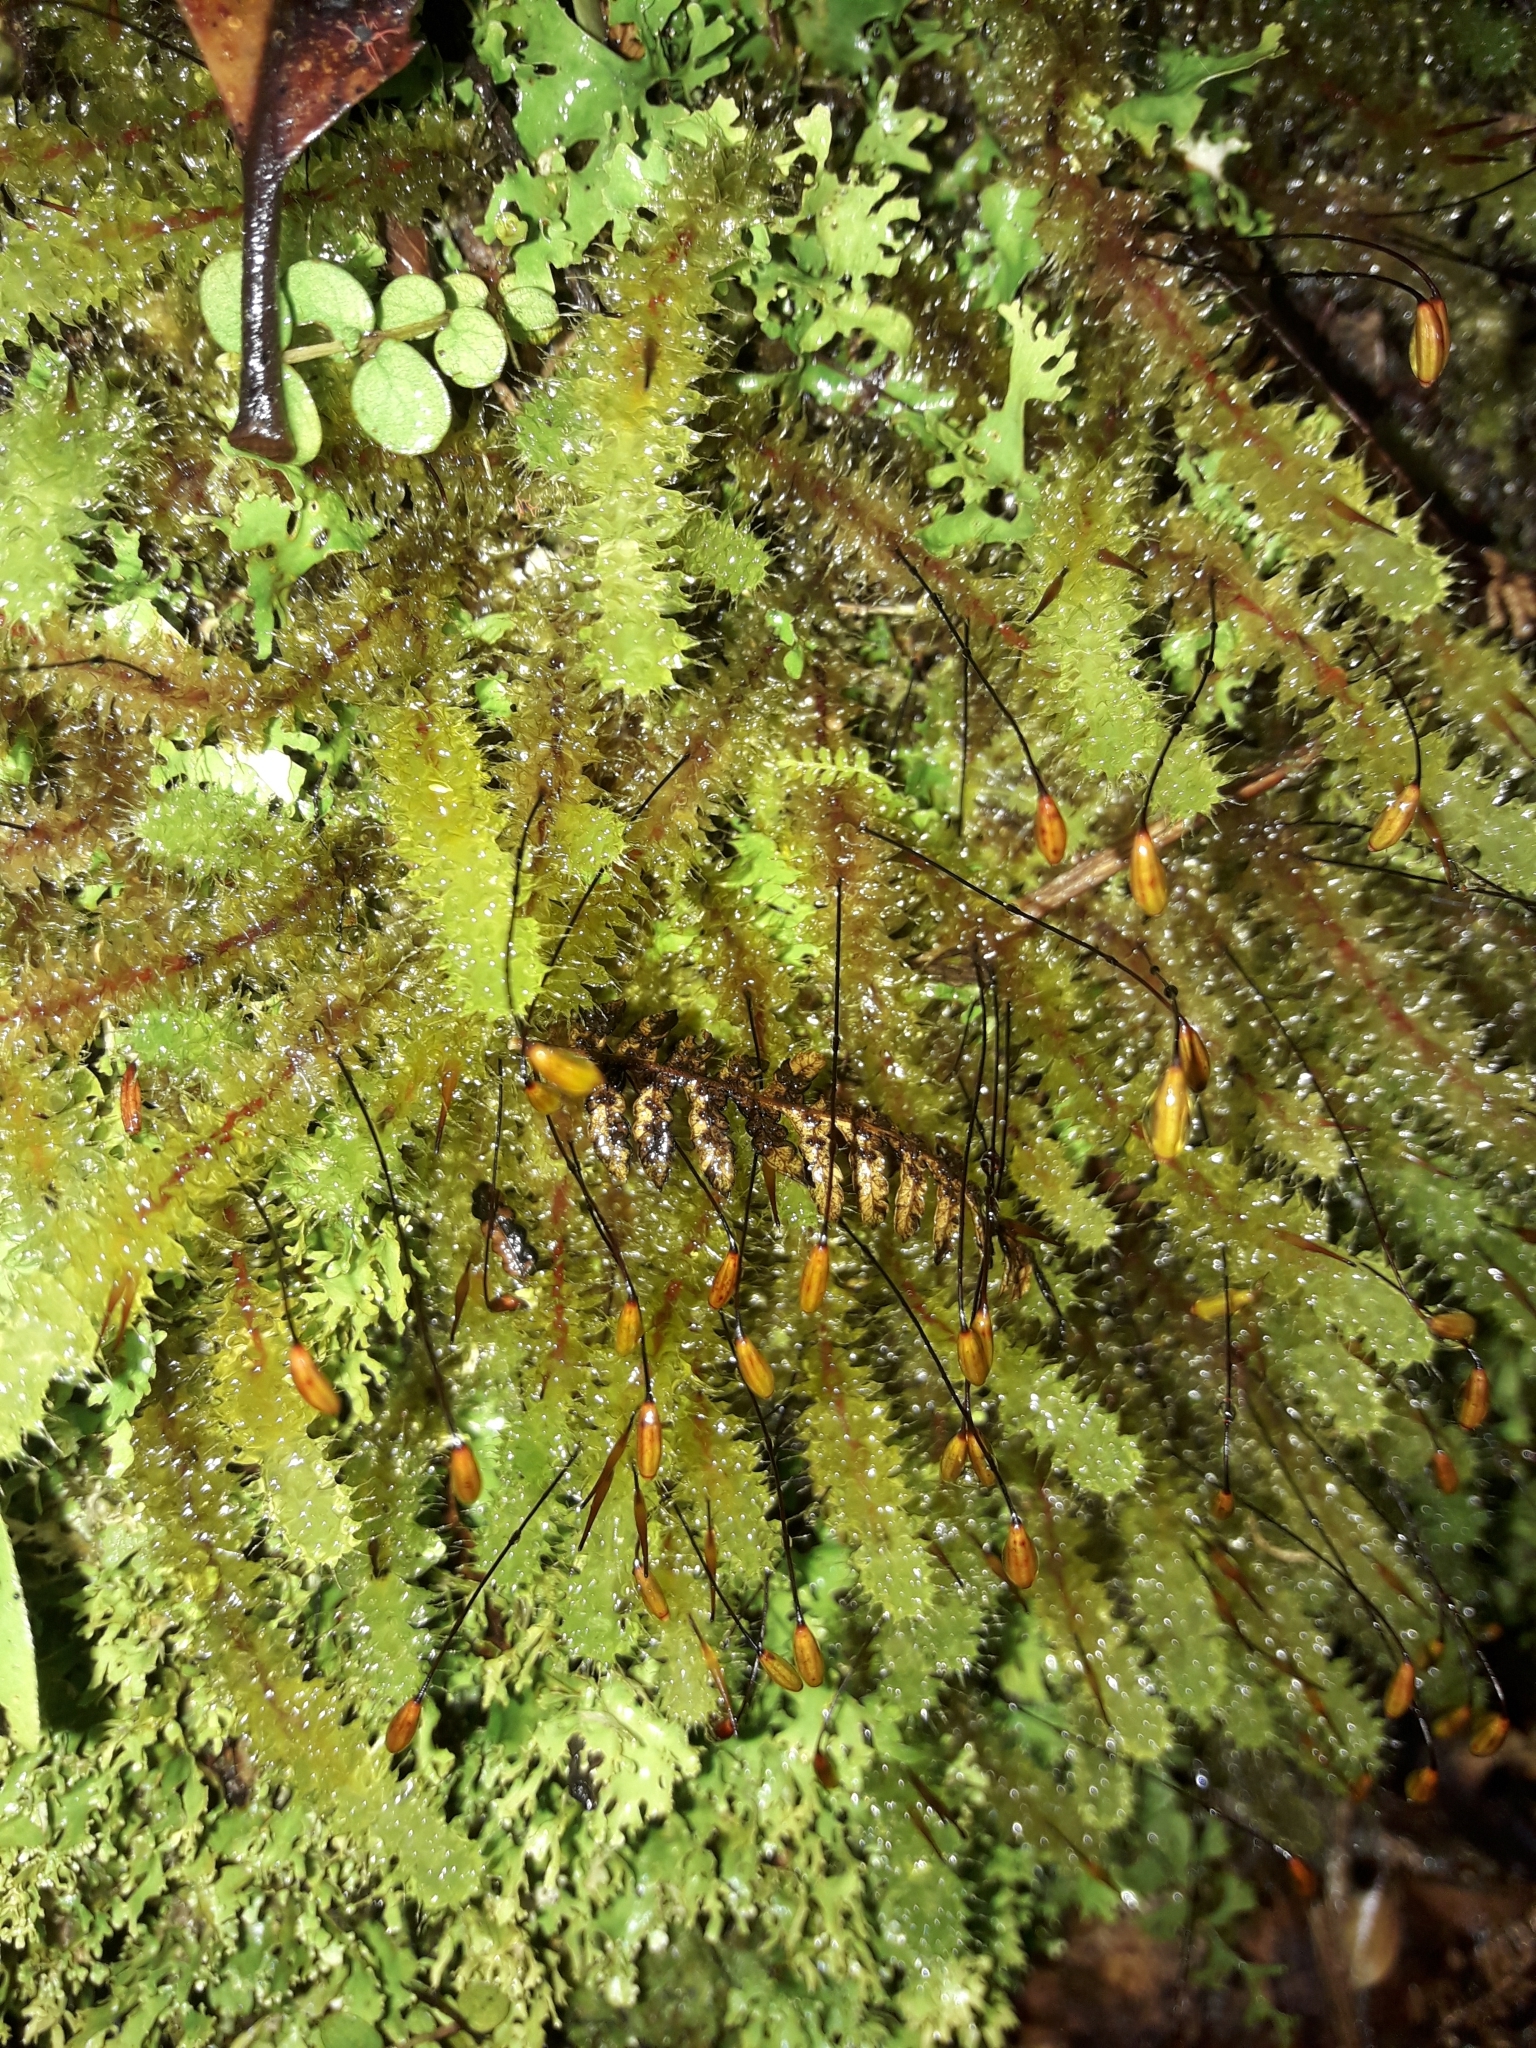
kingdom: Plantae
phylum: Bryophyta
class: Bryopsida
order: Ptychomniales
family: Ptychomniaceae
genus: Ptychomnion
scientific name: Ptychomnion aciculare
